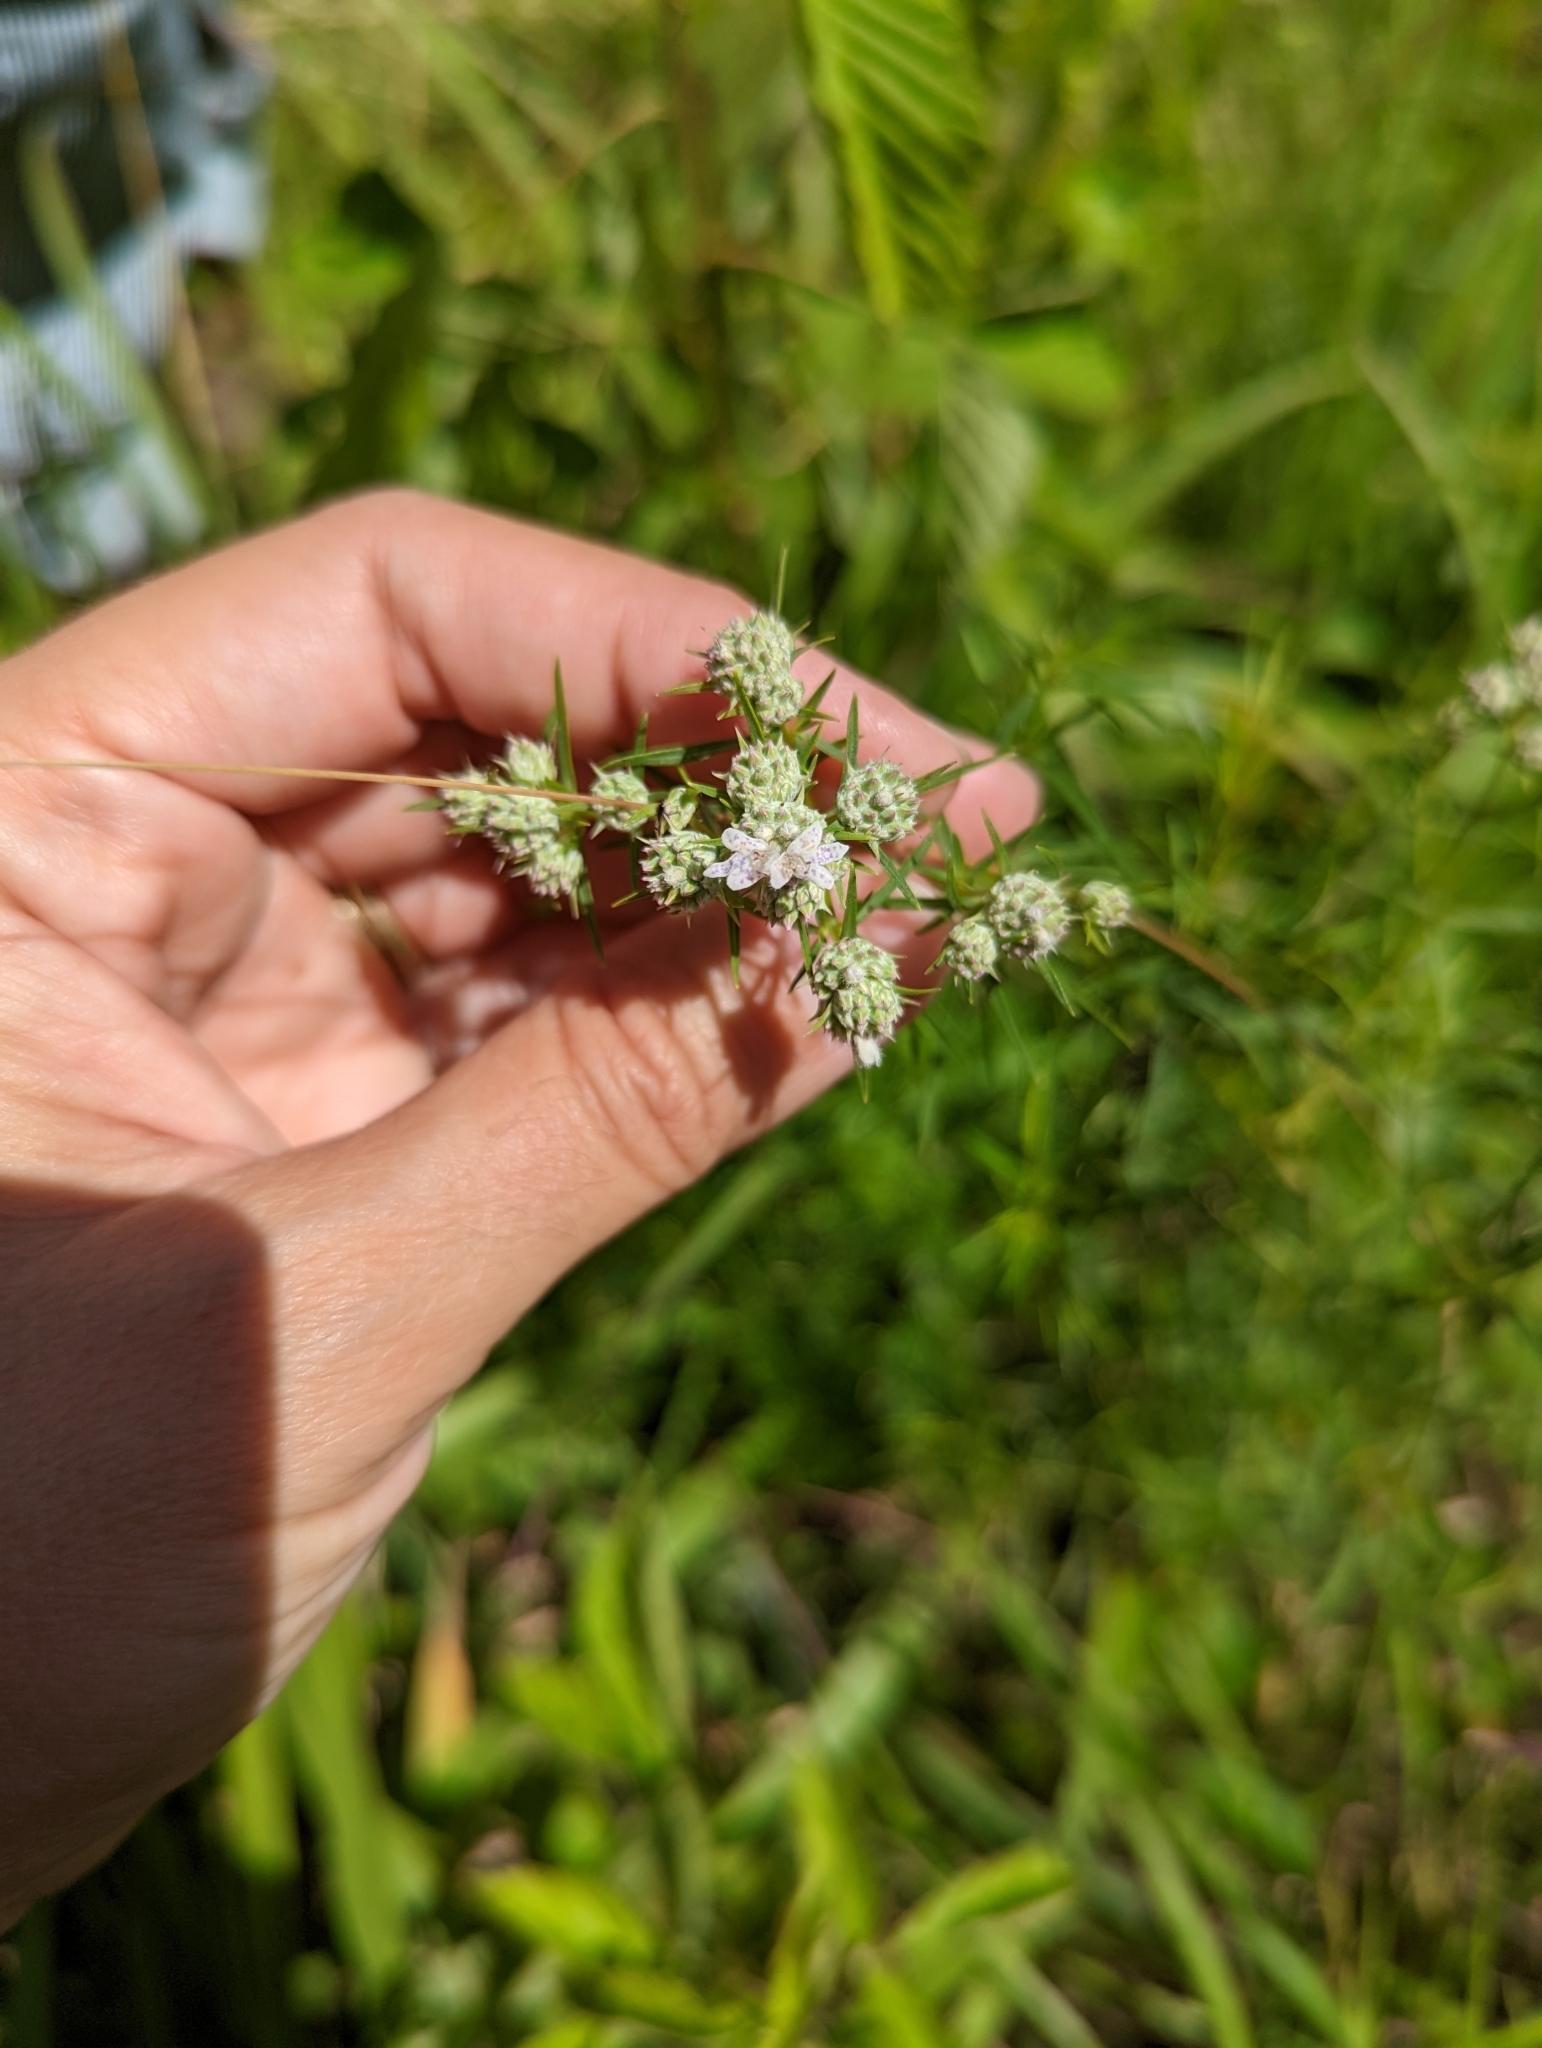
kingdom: Plantae
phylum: Tracheophyta
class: Magnoliopsida
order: Lamiales
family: Lamiaceae
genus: Pycnanthemum
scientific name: Pycnanthemum tenuifolium
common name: Narrow-leaf mountain-mint
